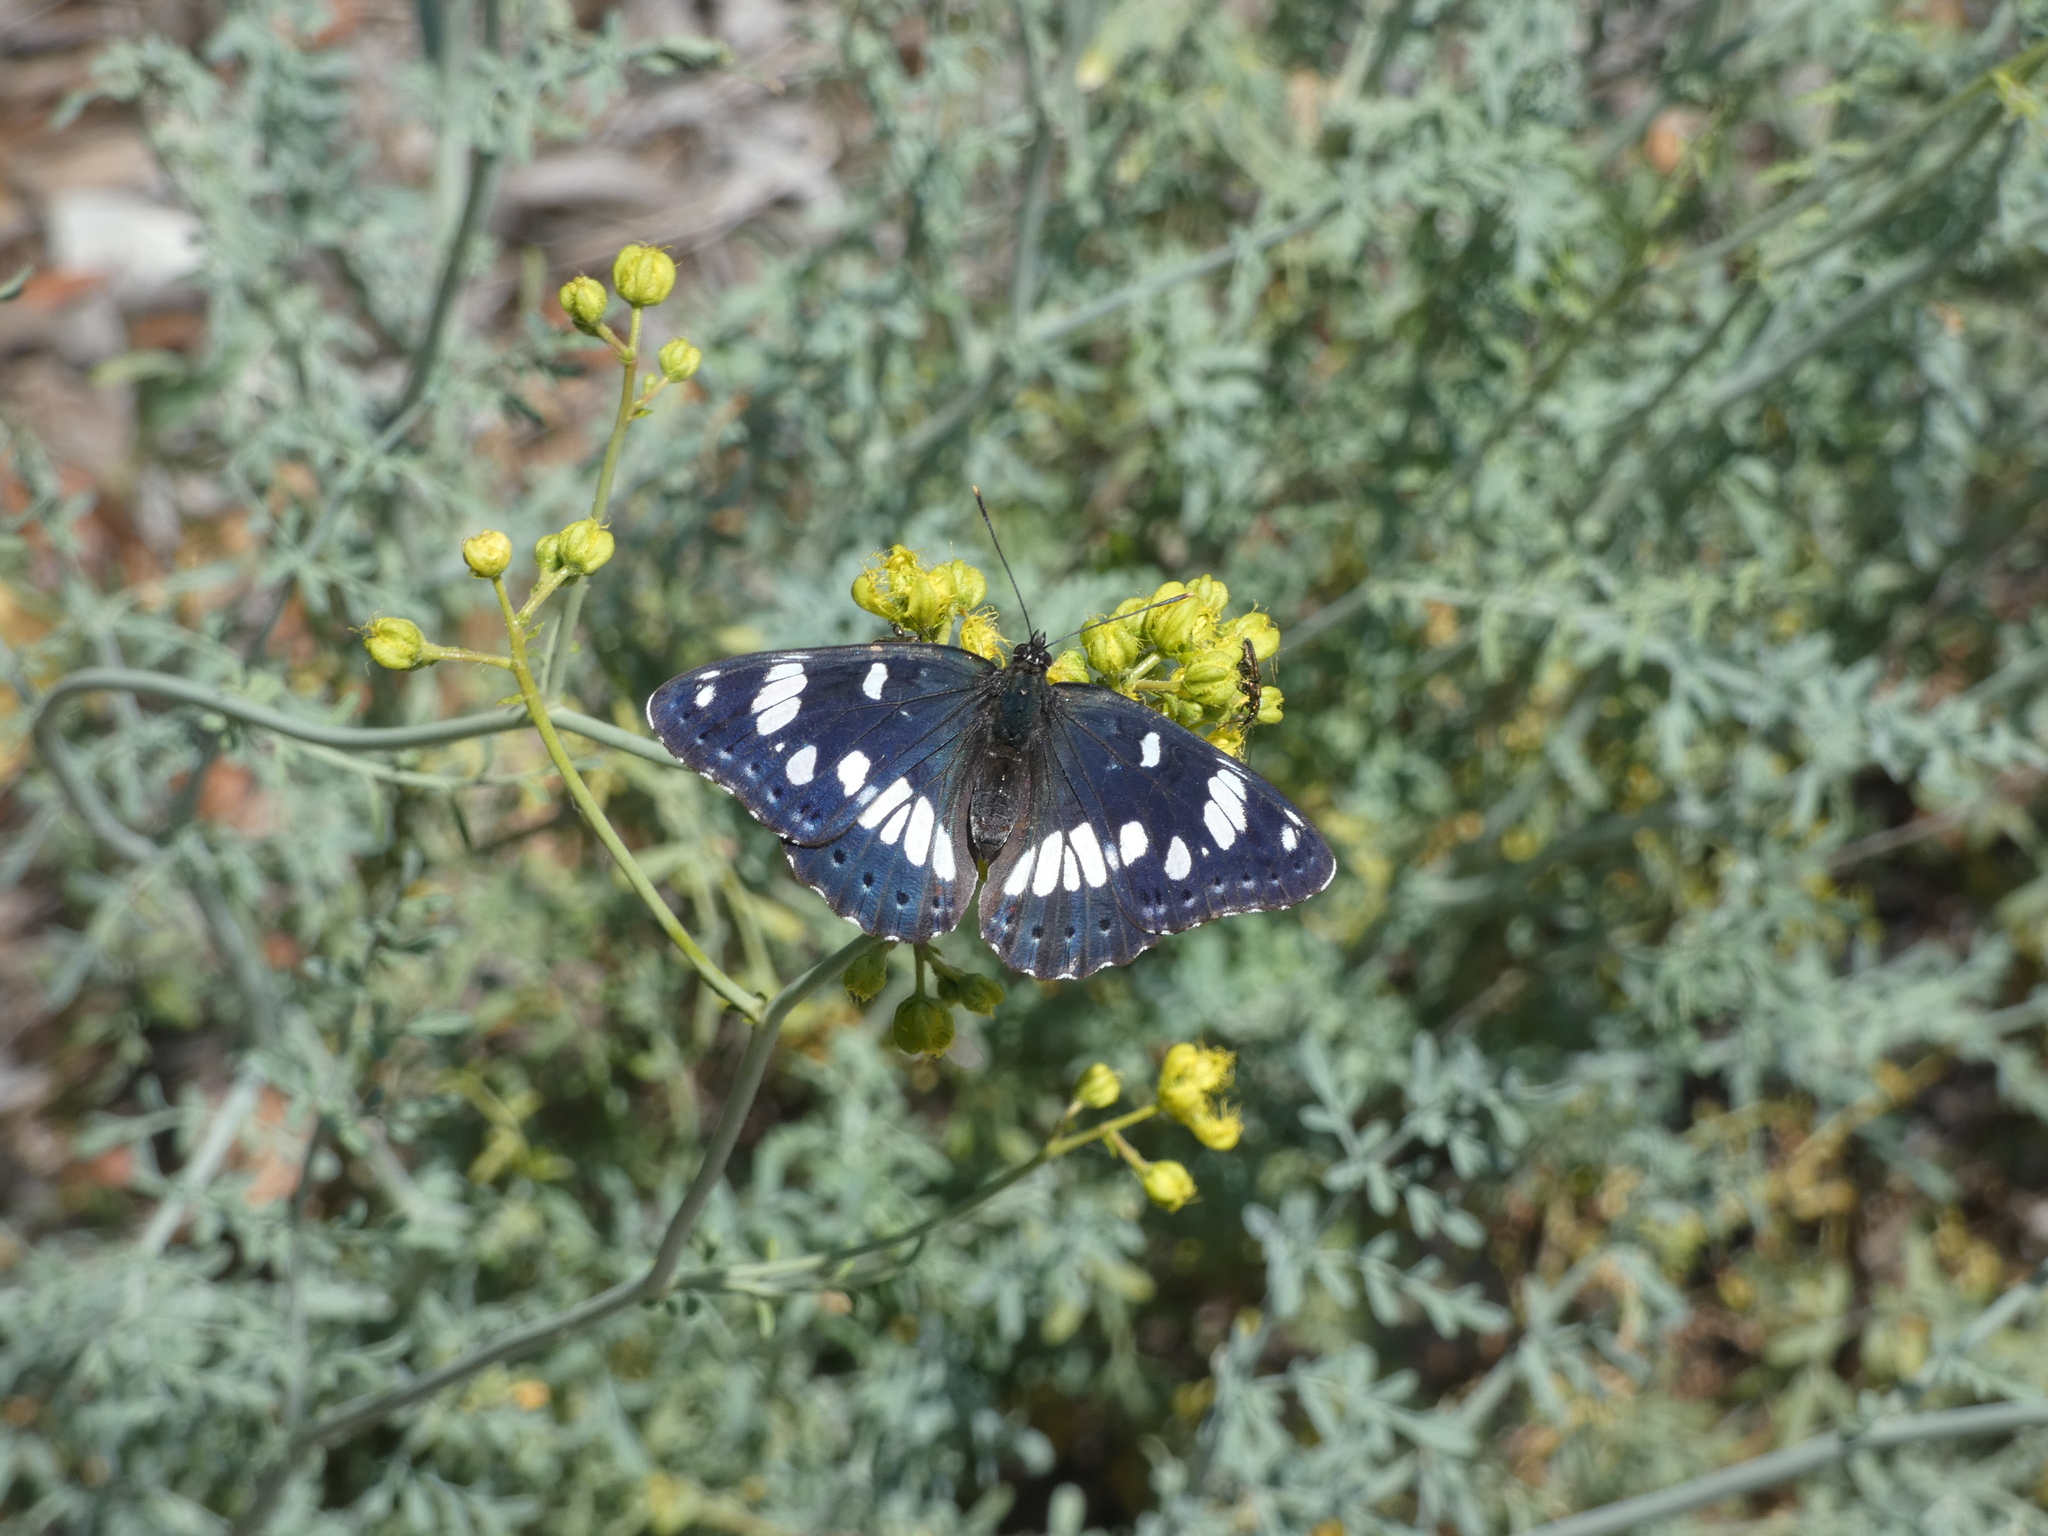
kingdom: Animalia
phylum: Arthropoda
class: Insecta
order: Lepidoptera
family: Nymphalidae
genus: Limenitis
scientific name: Limenitis reducta
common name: Southern white admiral
